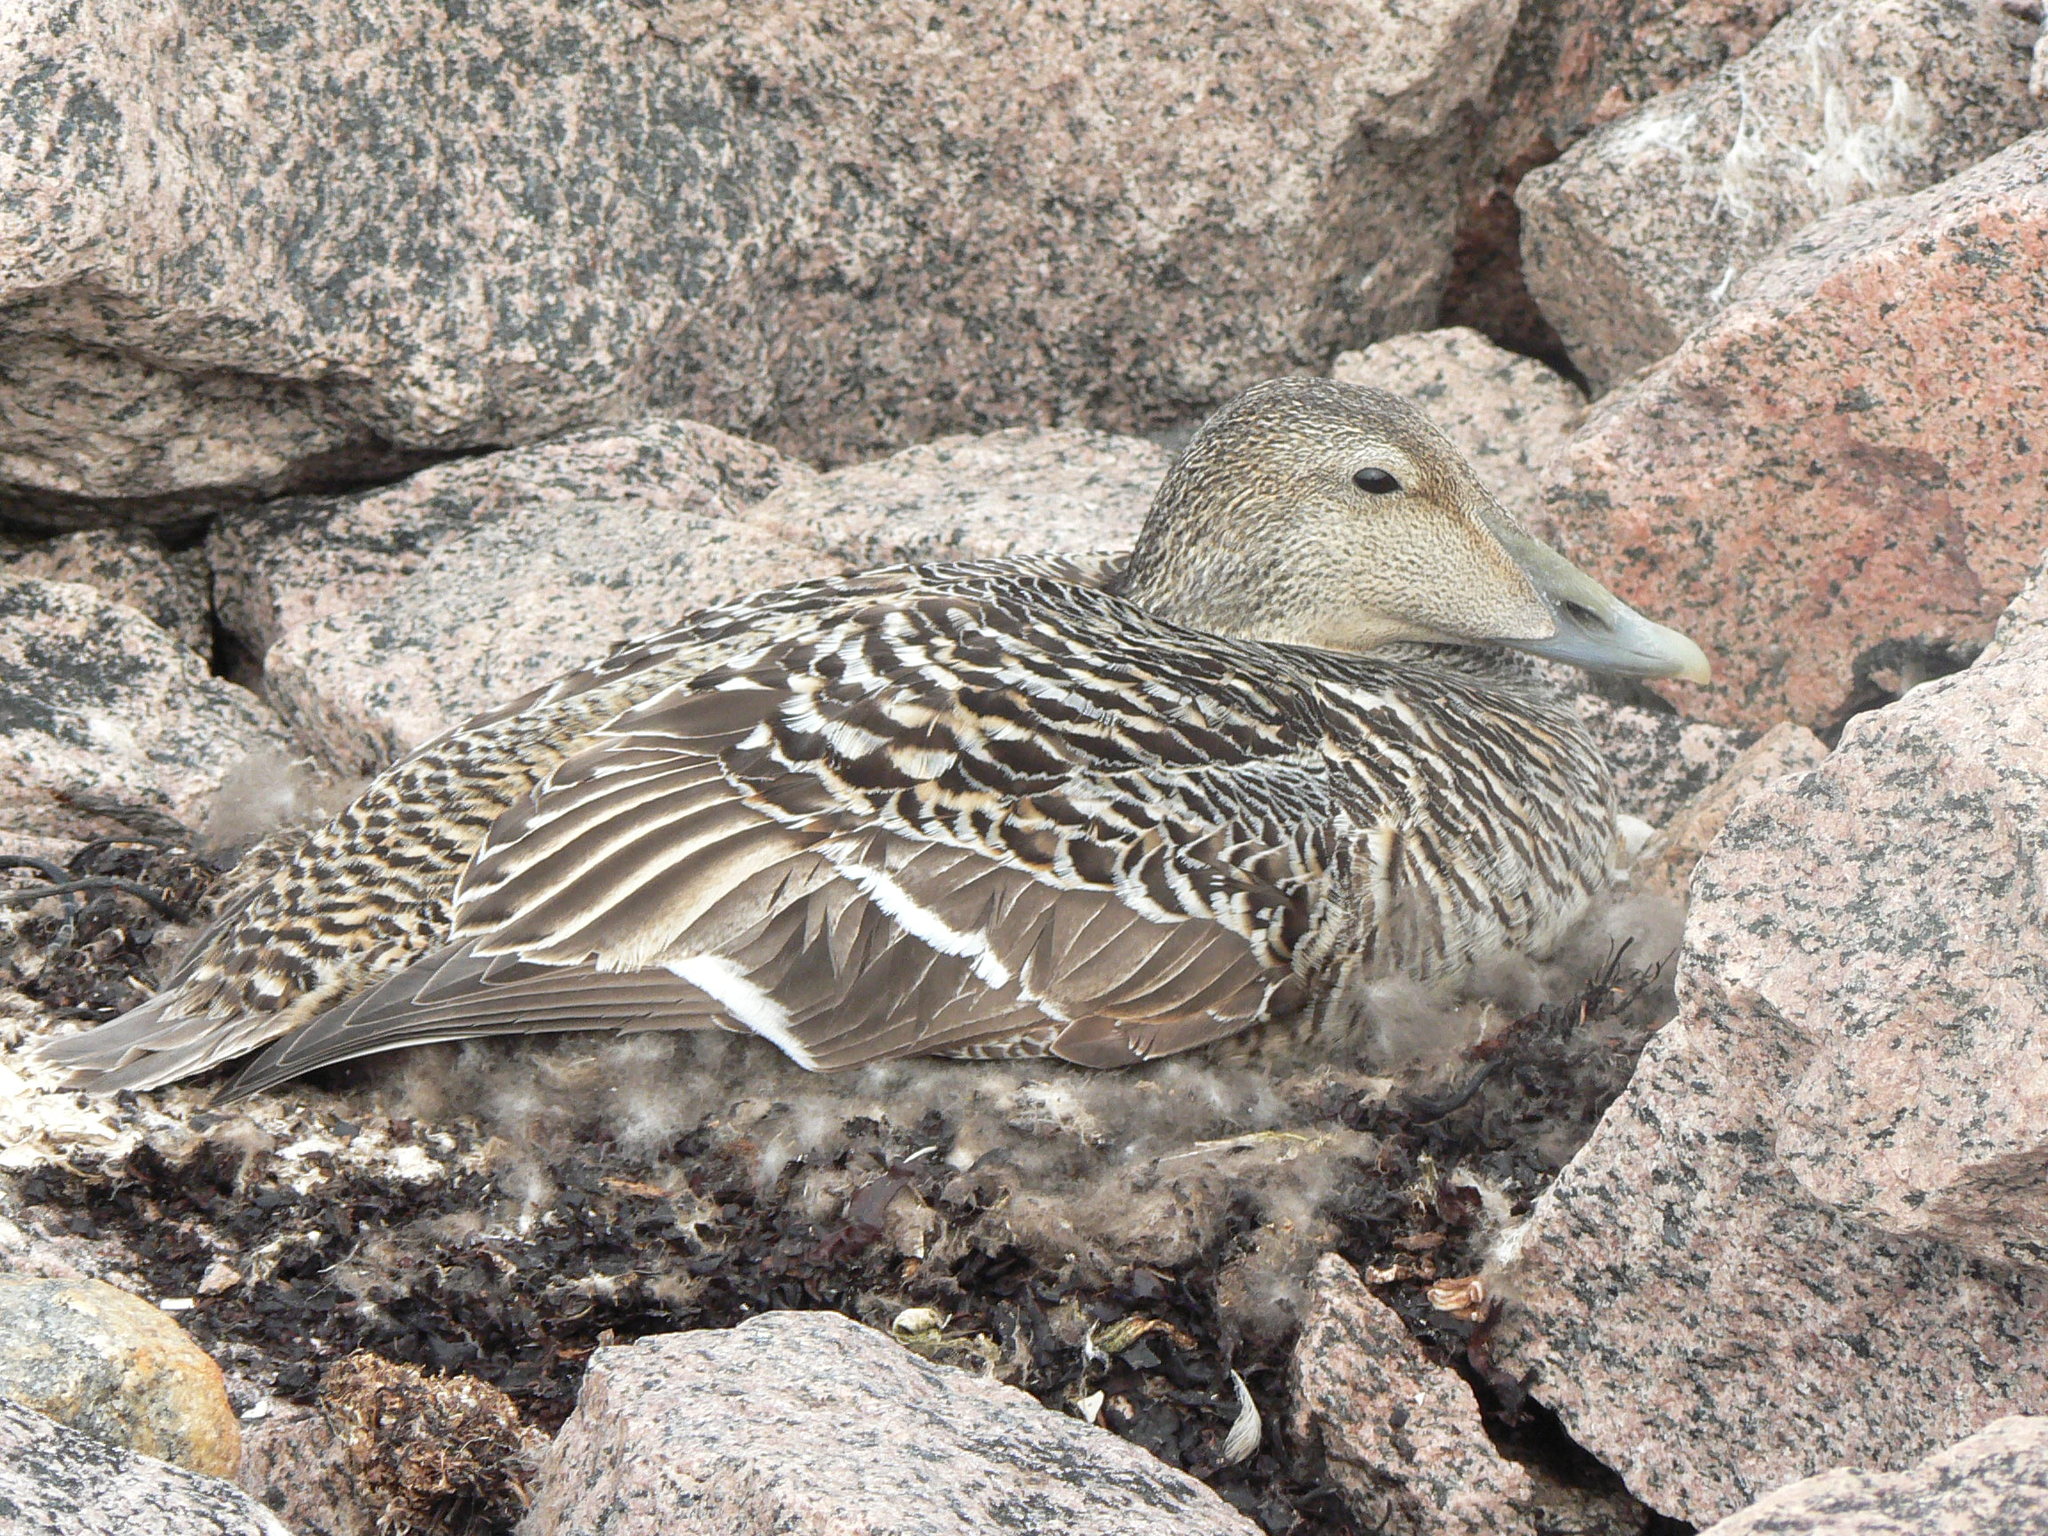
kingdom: Animalia
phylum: Chordata
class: Aves
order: Anseriformes
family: Anatidae
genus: Somateria
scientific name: Somateria mollissima
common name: Common eider
